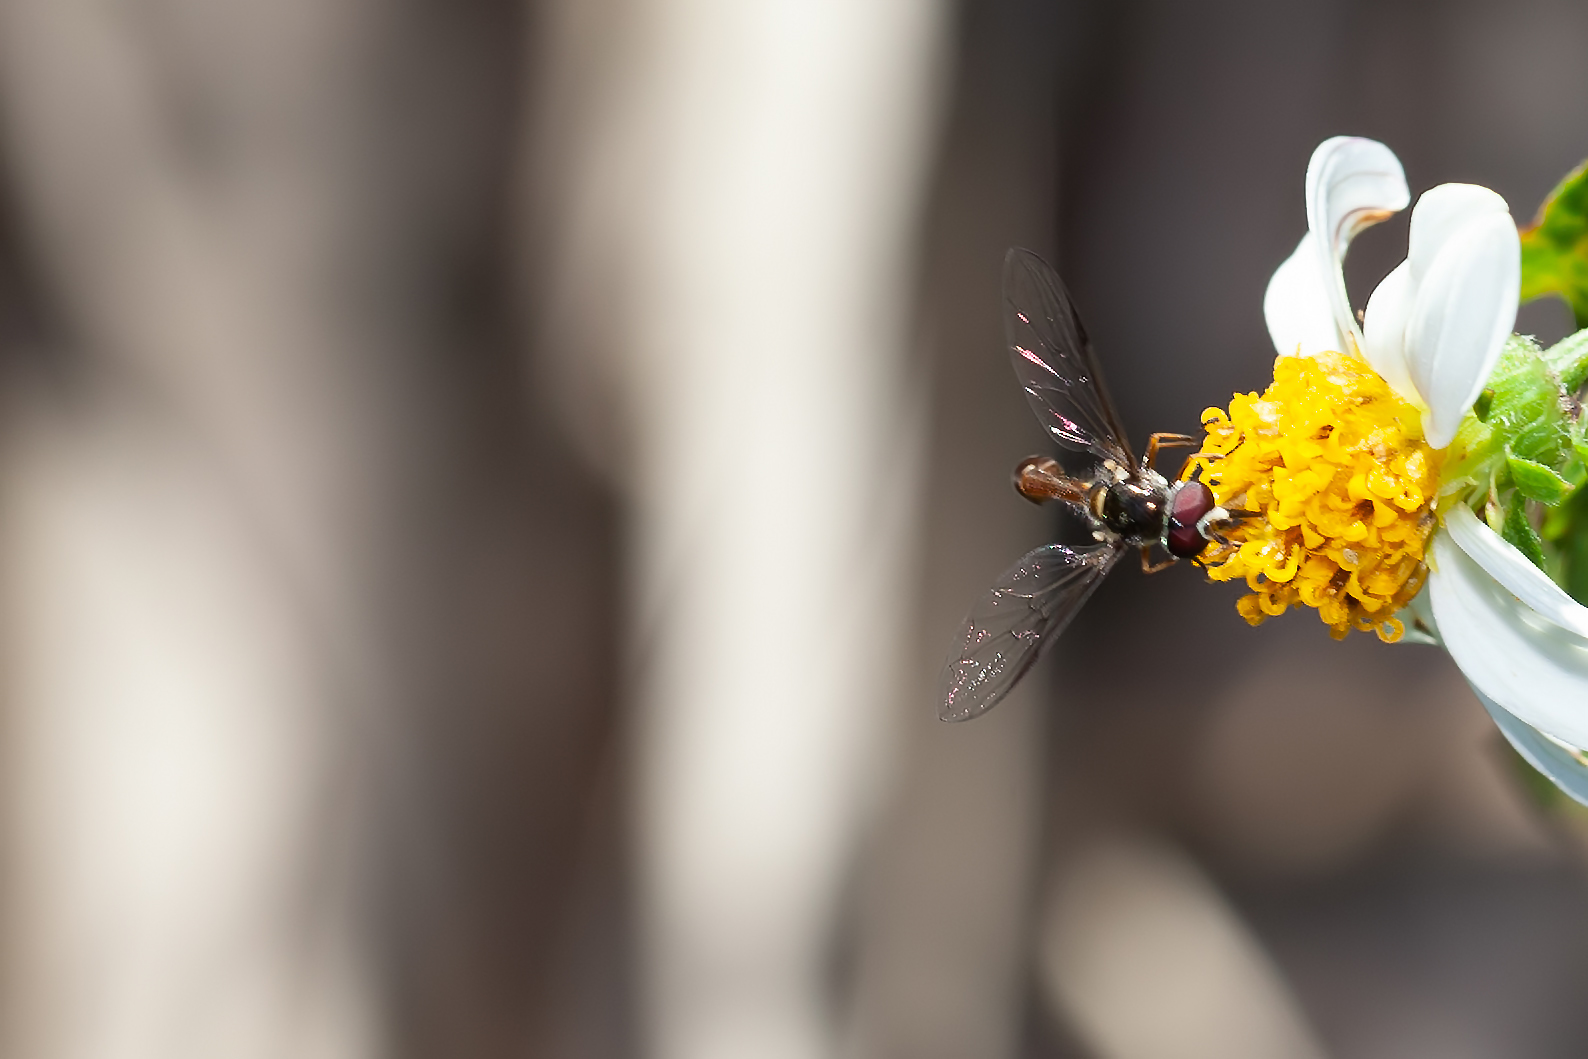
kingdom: Animalia
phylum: Arthropoda
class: Insecta
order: Diptera
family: Syrphidae
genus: Dioprosopa
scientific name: Dioprosopa clavatus
